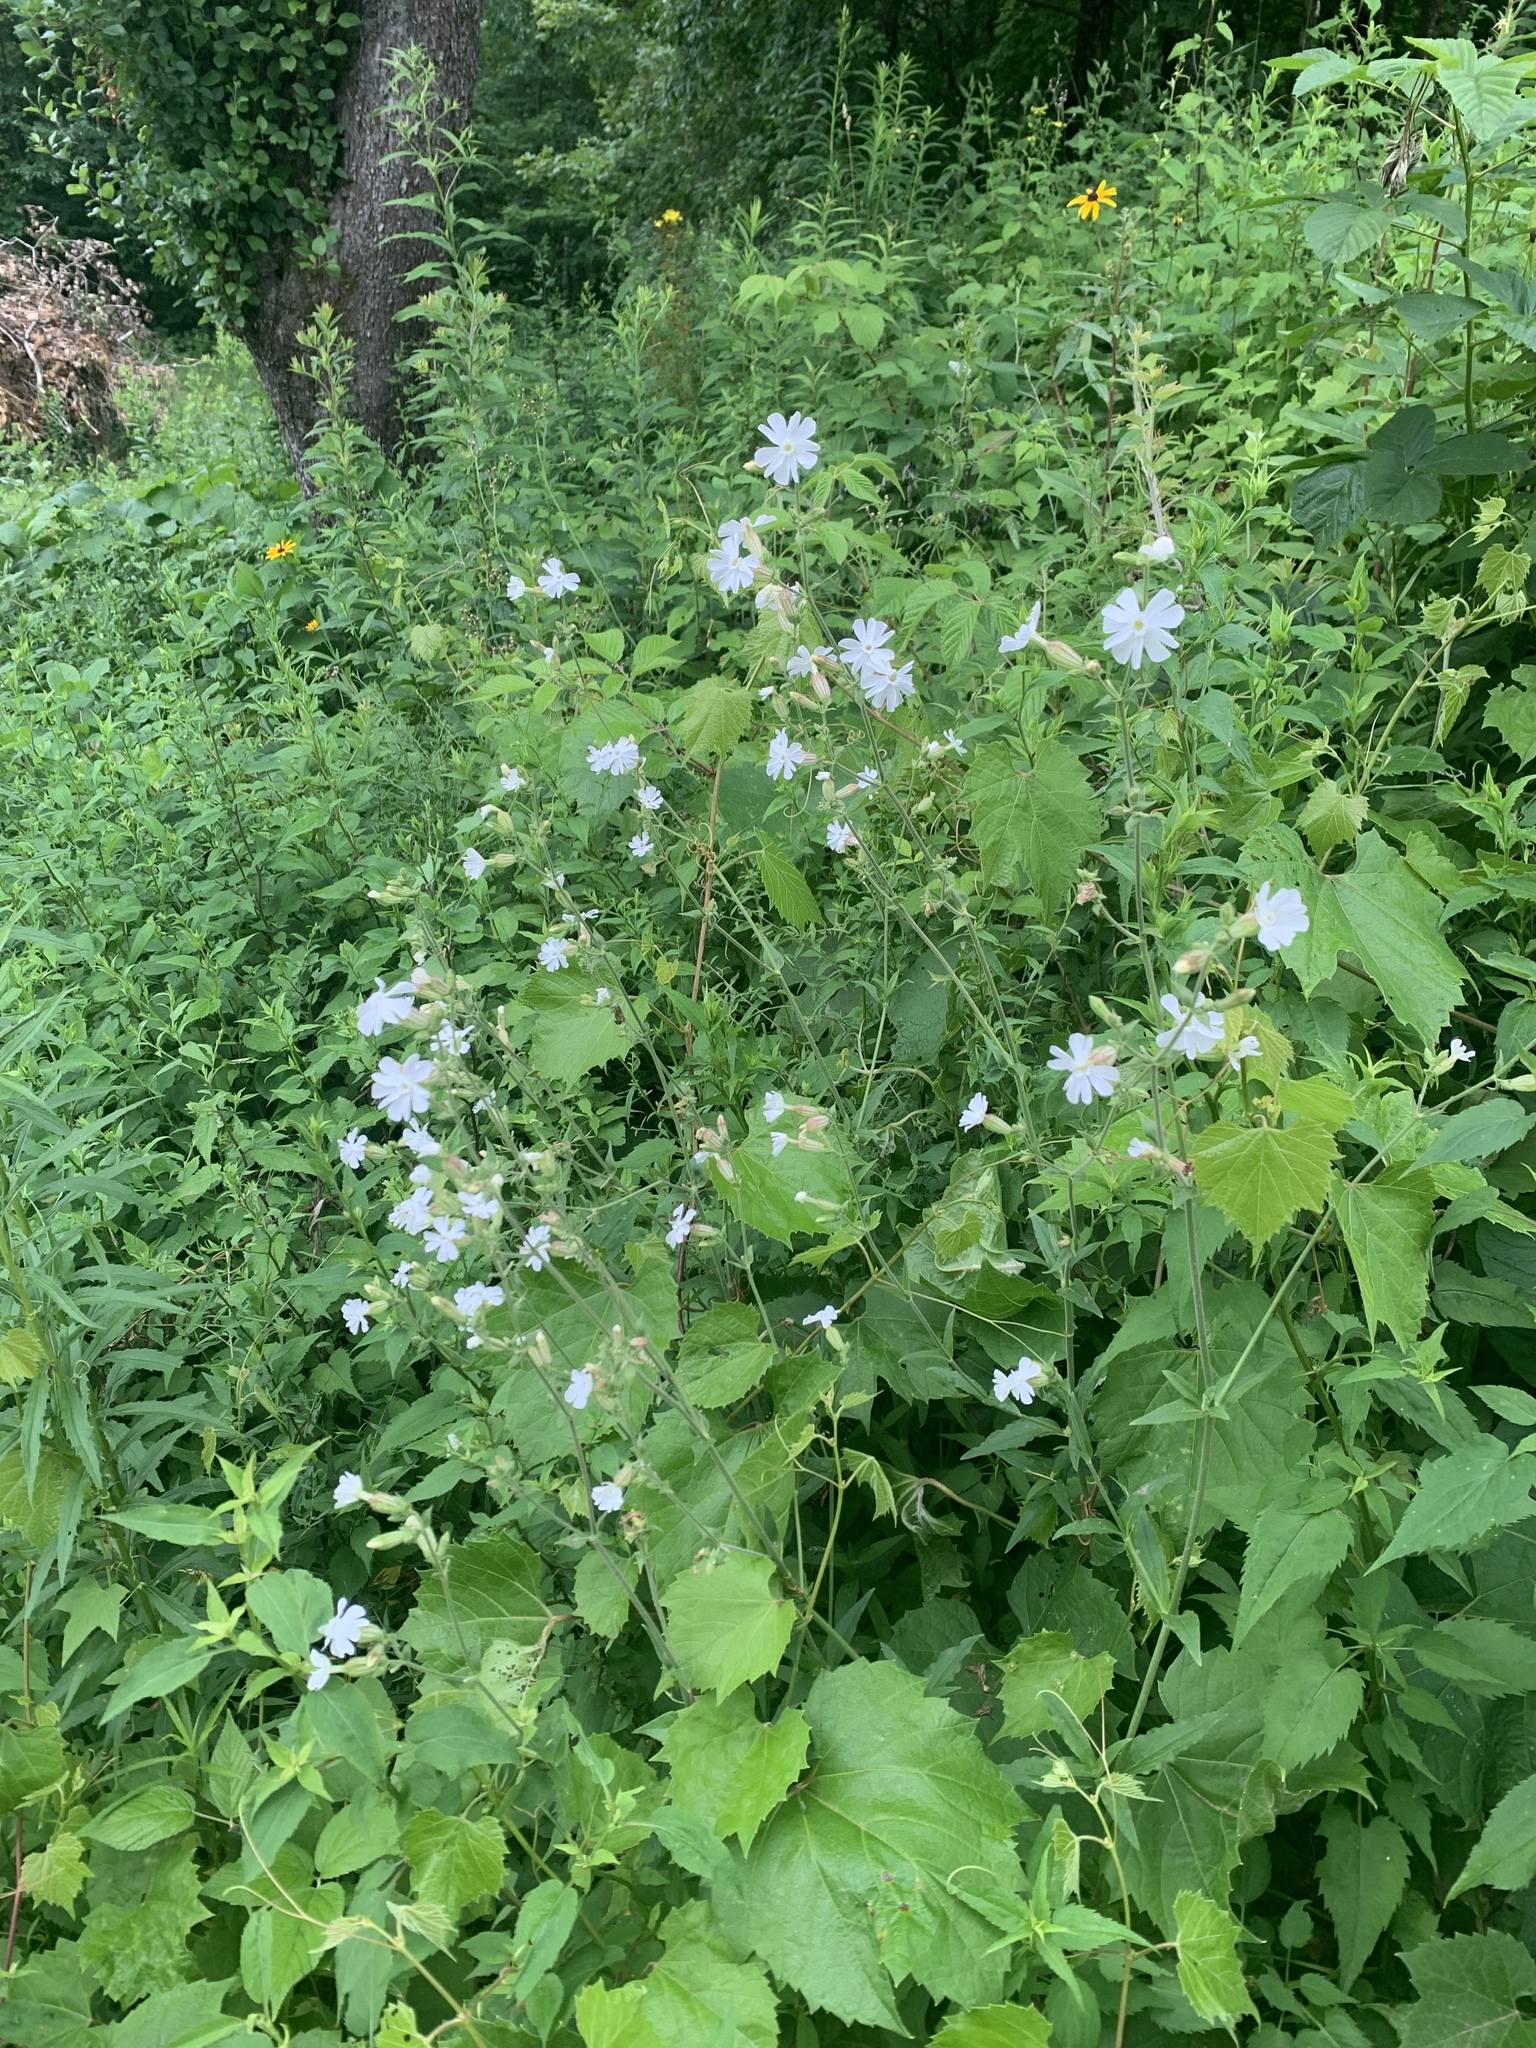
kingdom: Plantae
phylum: Tracheophyta
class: Magnoliopsida
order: Caryophyllales
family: Caryophyllaceae
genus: Silene
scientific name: Silene latifolia
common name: White campion
